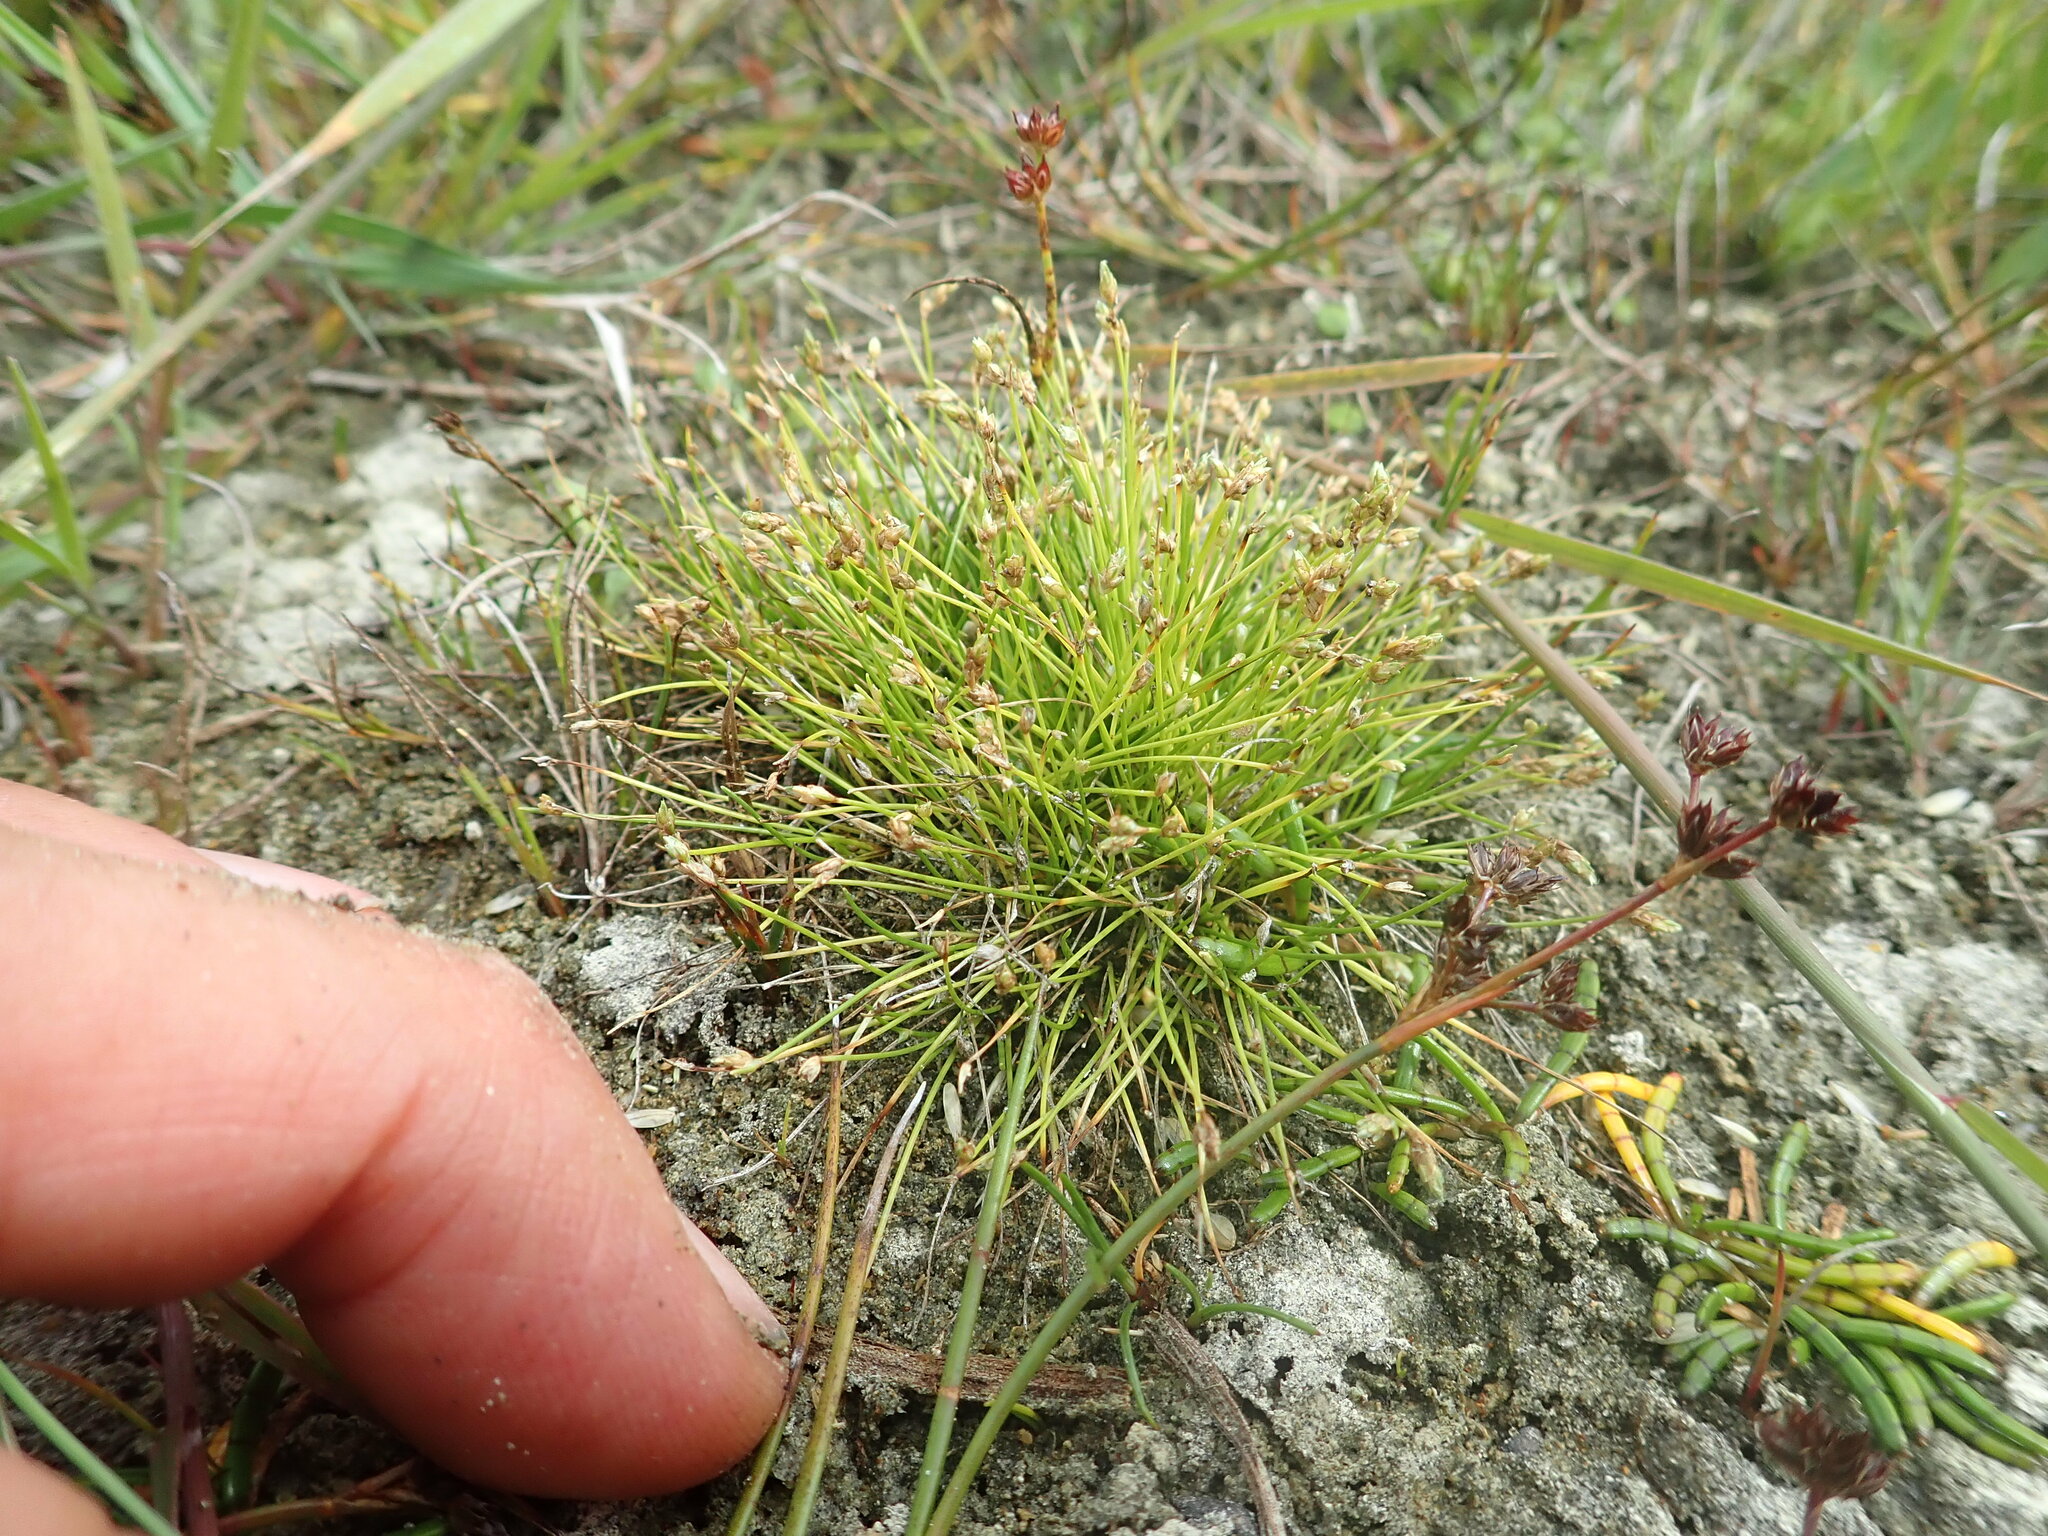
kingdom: Plantae
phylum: Tracheophyta
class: Liliopsida
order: Poales
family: Cyperaceae
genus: Isolepis
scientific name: Isolepis cernua
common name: Slender club-rush
